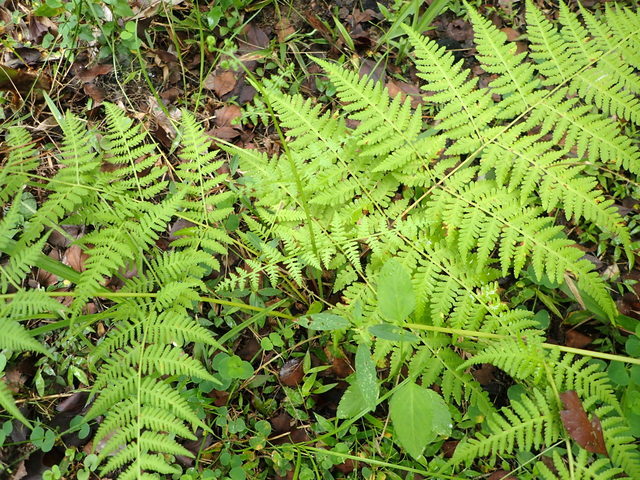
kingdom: Plantae
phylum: Tracheophyta
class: Polypodiopsida
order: Polypodiales
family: Thelypteridaceae
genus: Macrothelypteris
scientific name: Macrothelypteris torresiana
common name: Swordfern
